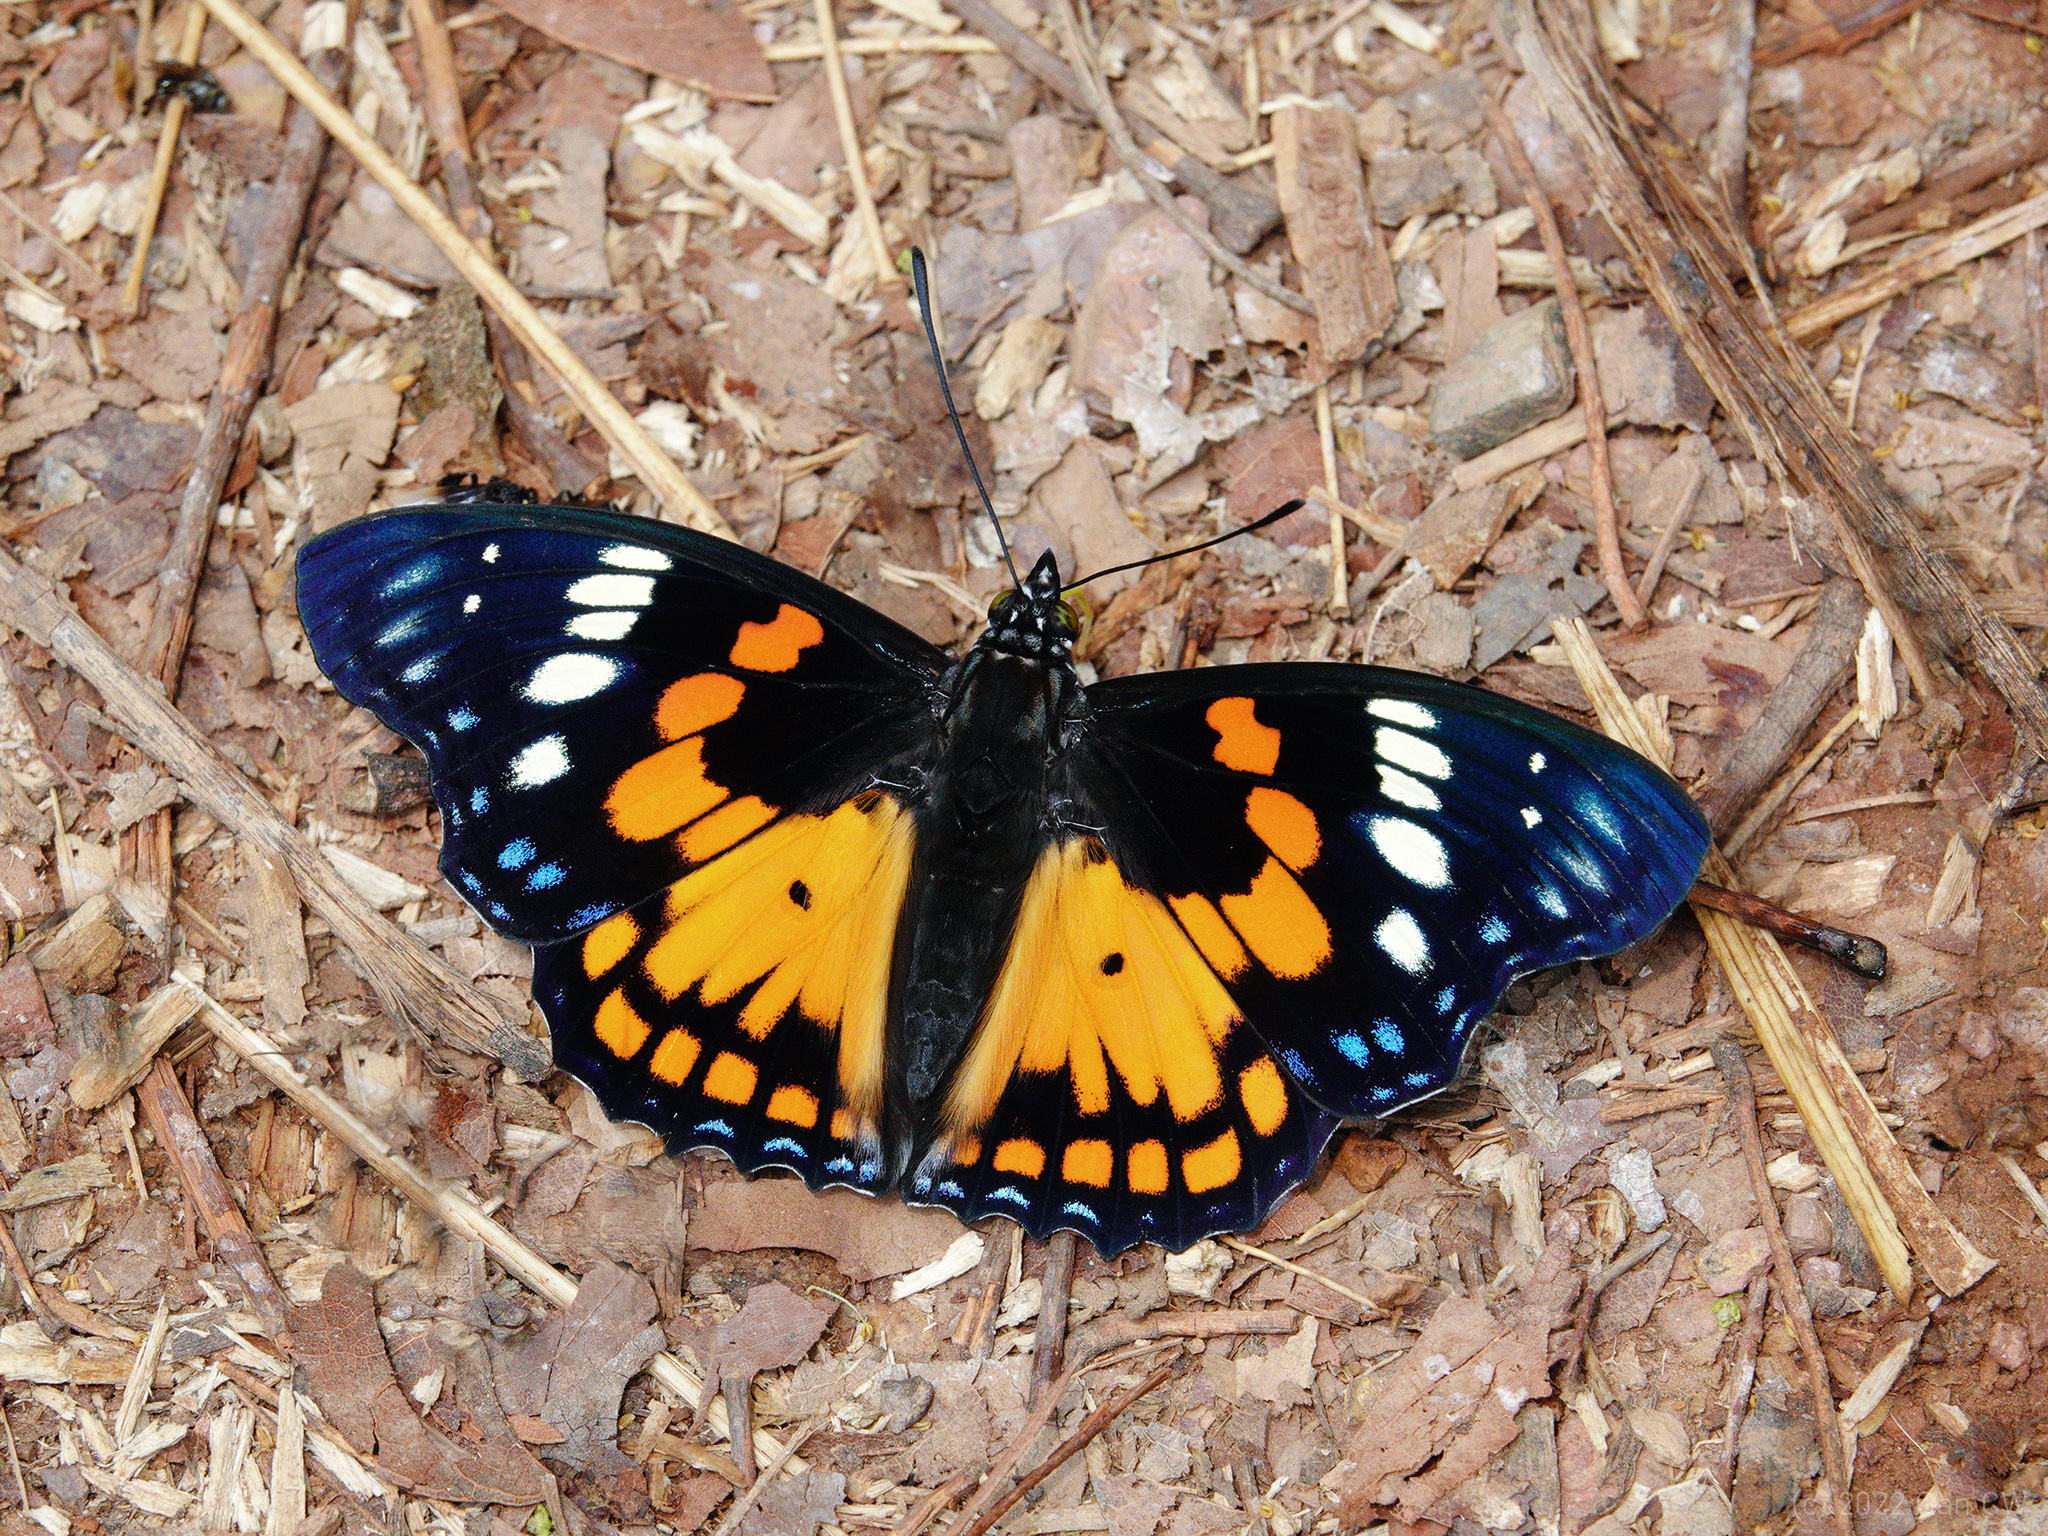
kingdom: Animalia
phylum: Arthropoda
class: Insecta
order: Lepidoptera
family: Nymphalidae
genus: Sephisa
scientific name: Sephisa chandra
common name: Eastern courtier
